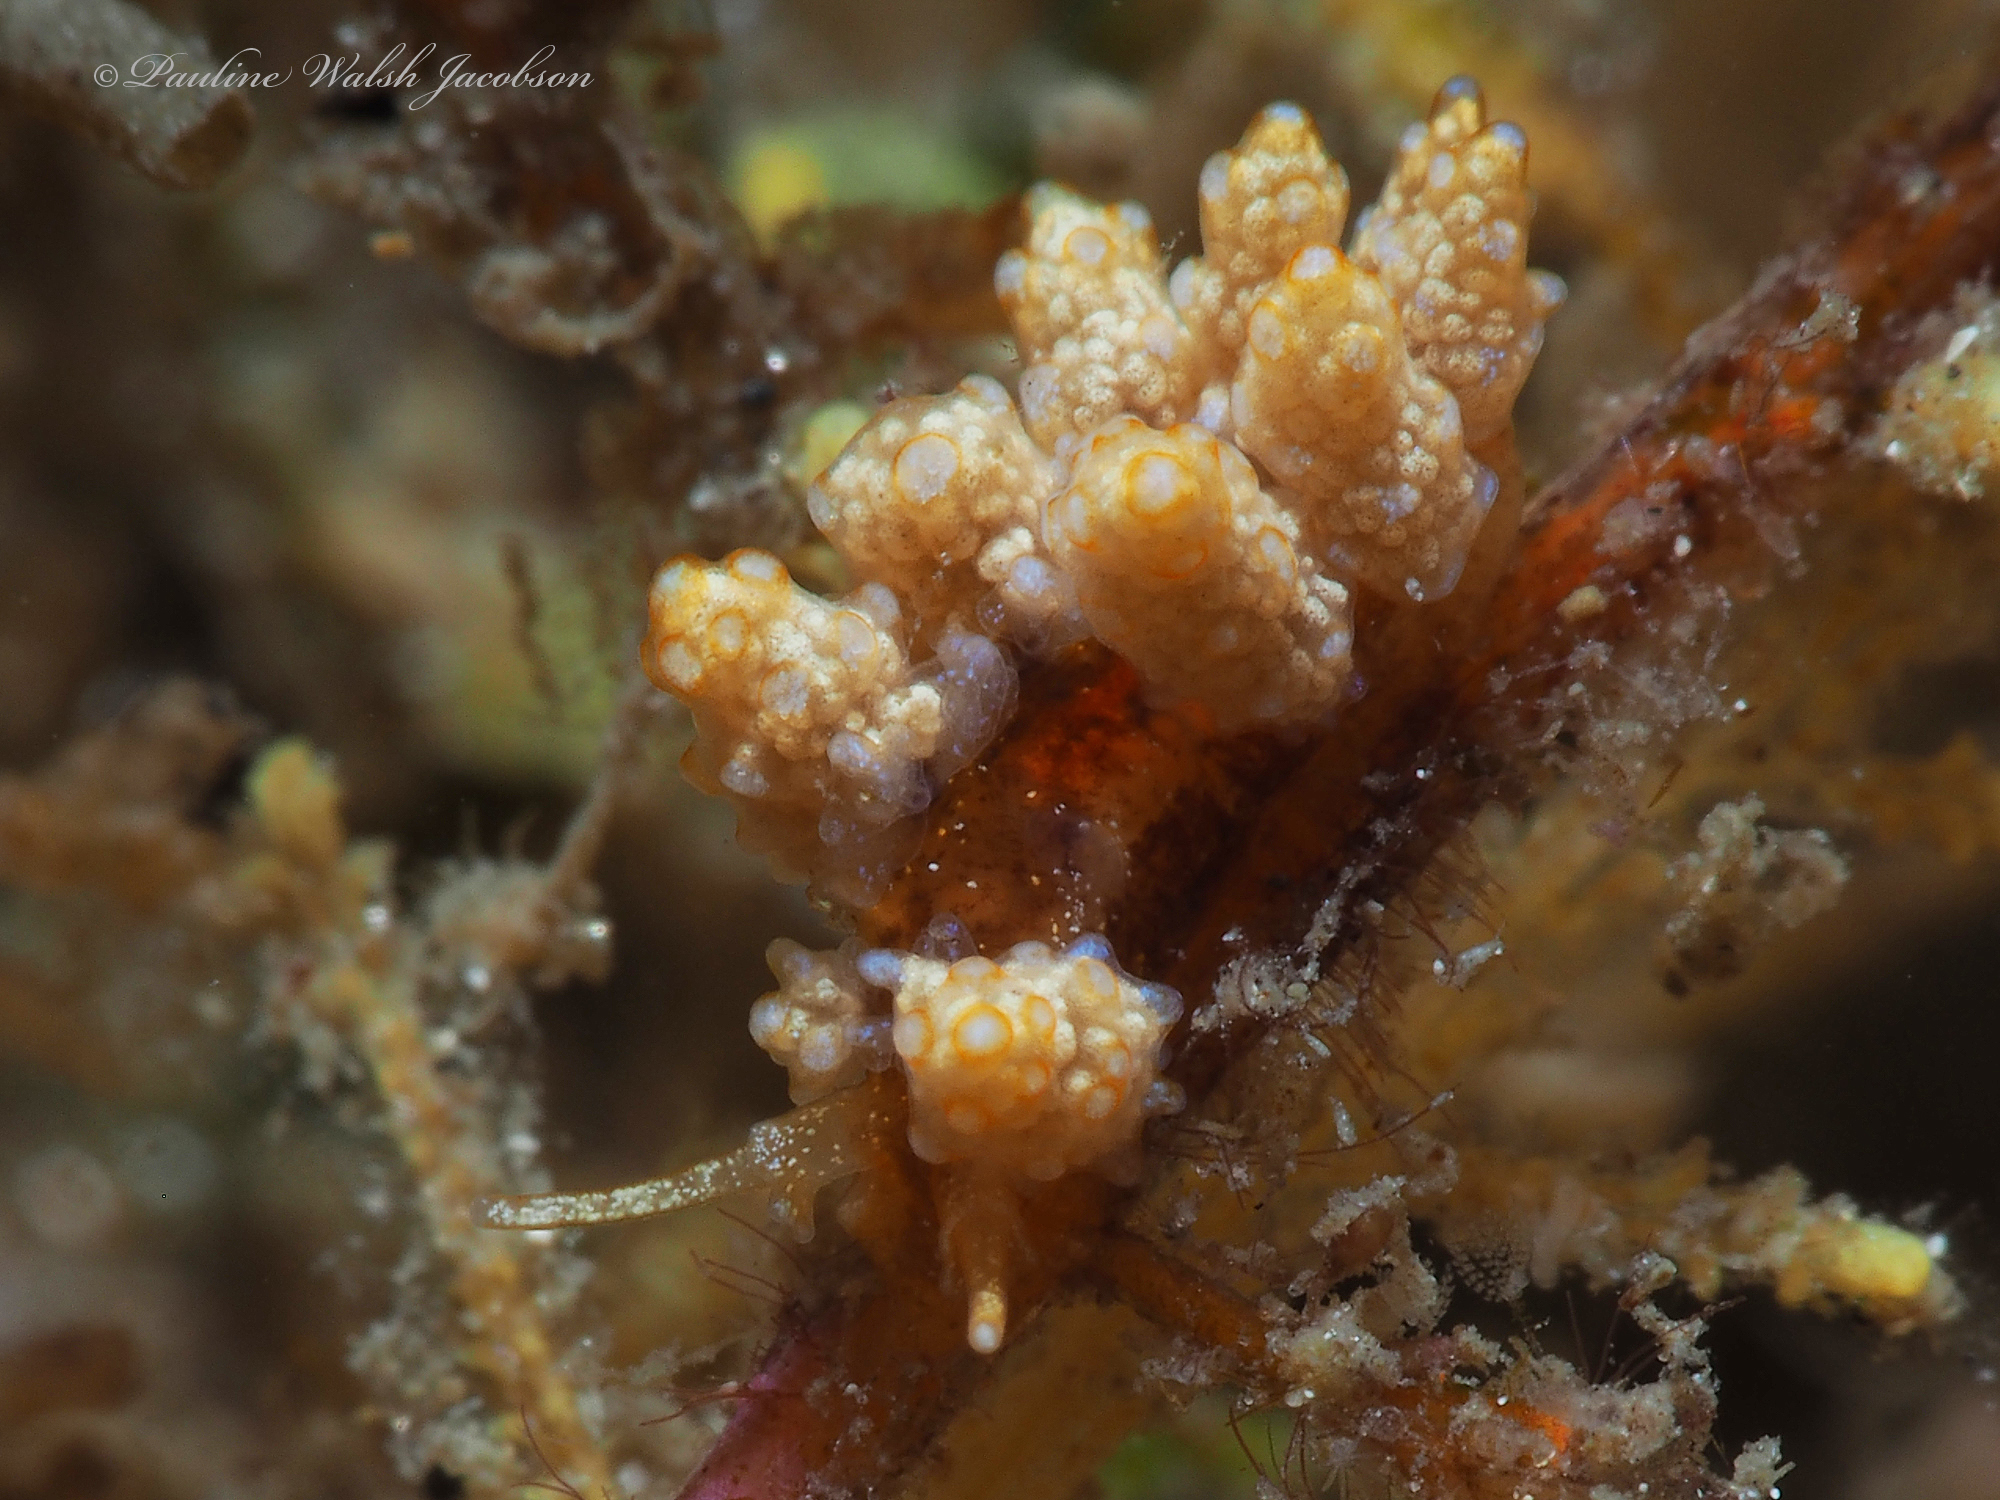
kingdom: Animalia
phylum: Mollusca
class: Gastropoda
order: Nudibranchia
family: Dotidae
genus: Doto
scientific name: Doto torrelavega
